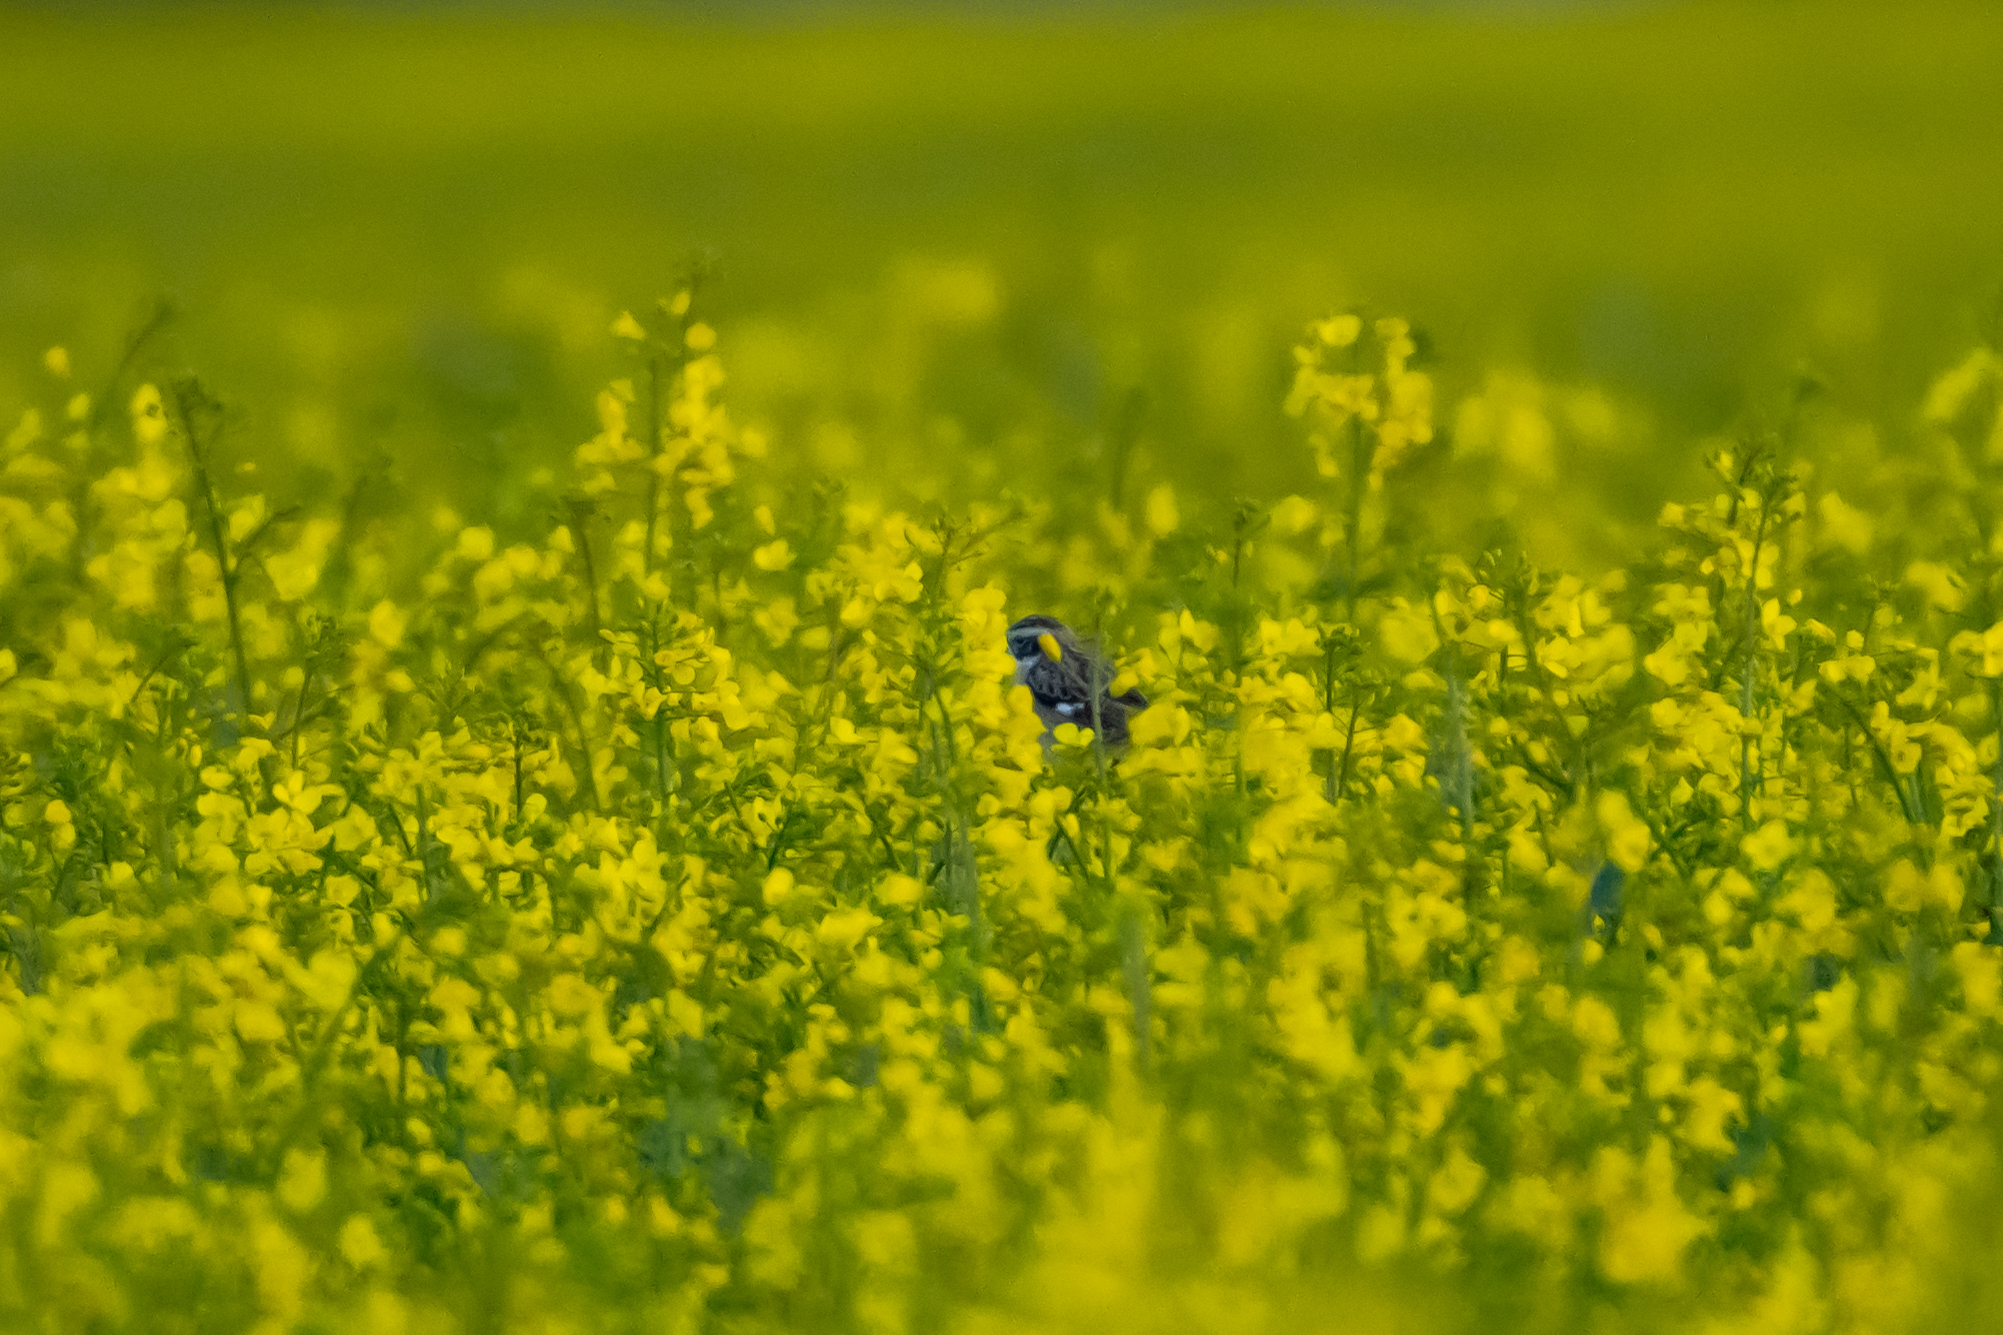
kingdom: Animalia
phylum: Chordata
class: Aves
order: Passeriformes
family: Muscicapidae
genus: Saxicola
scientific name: Saxicola rubetra
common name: Whinchat
